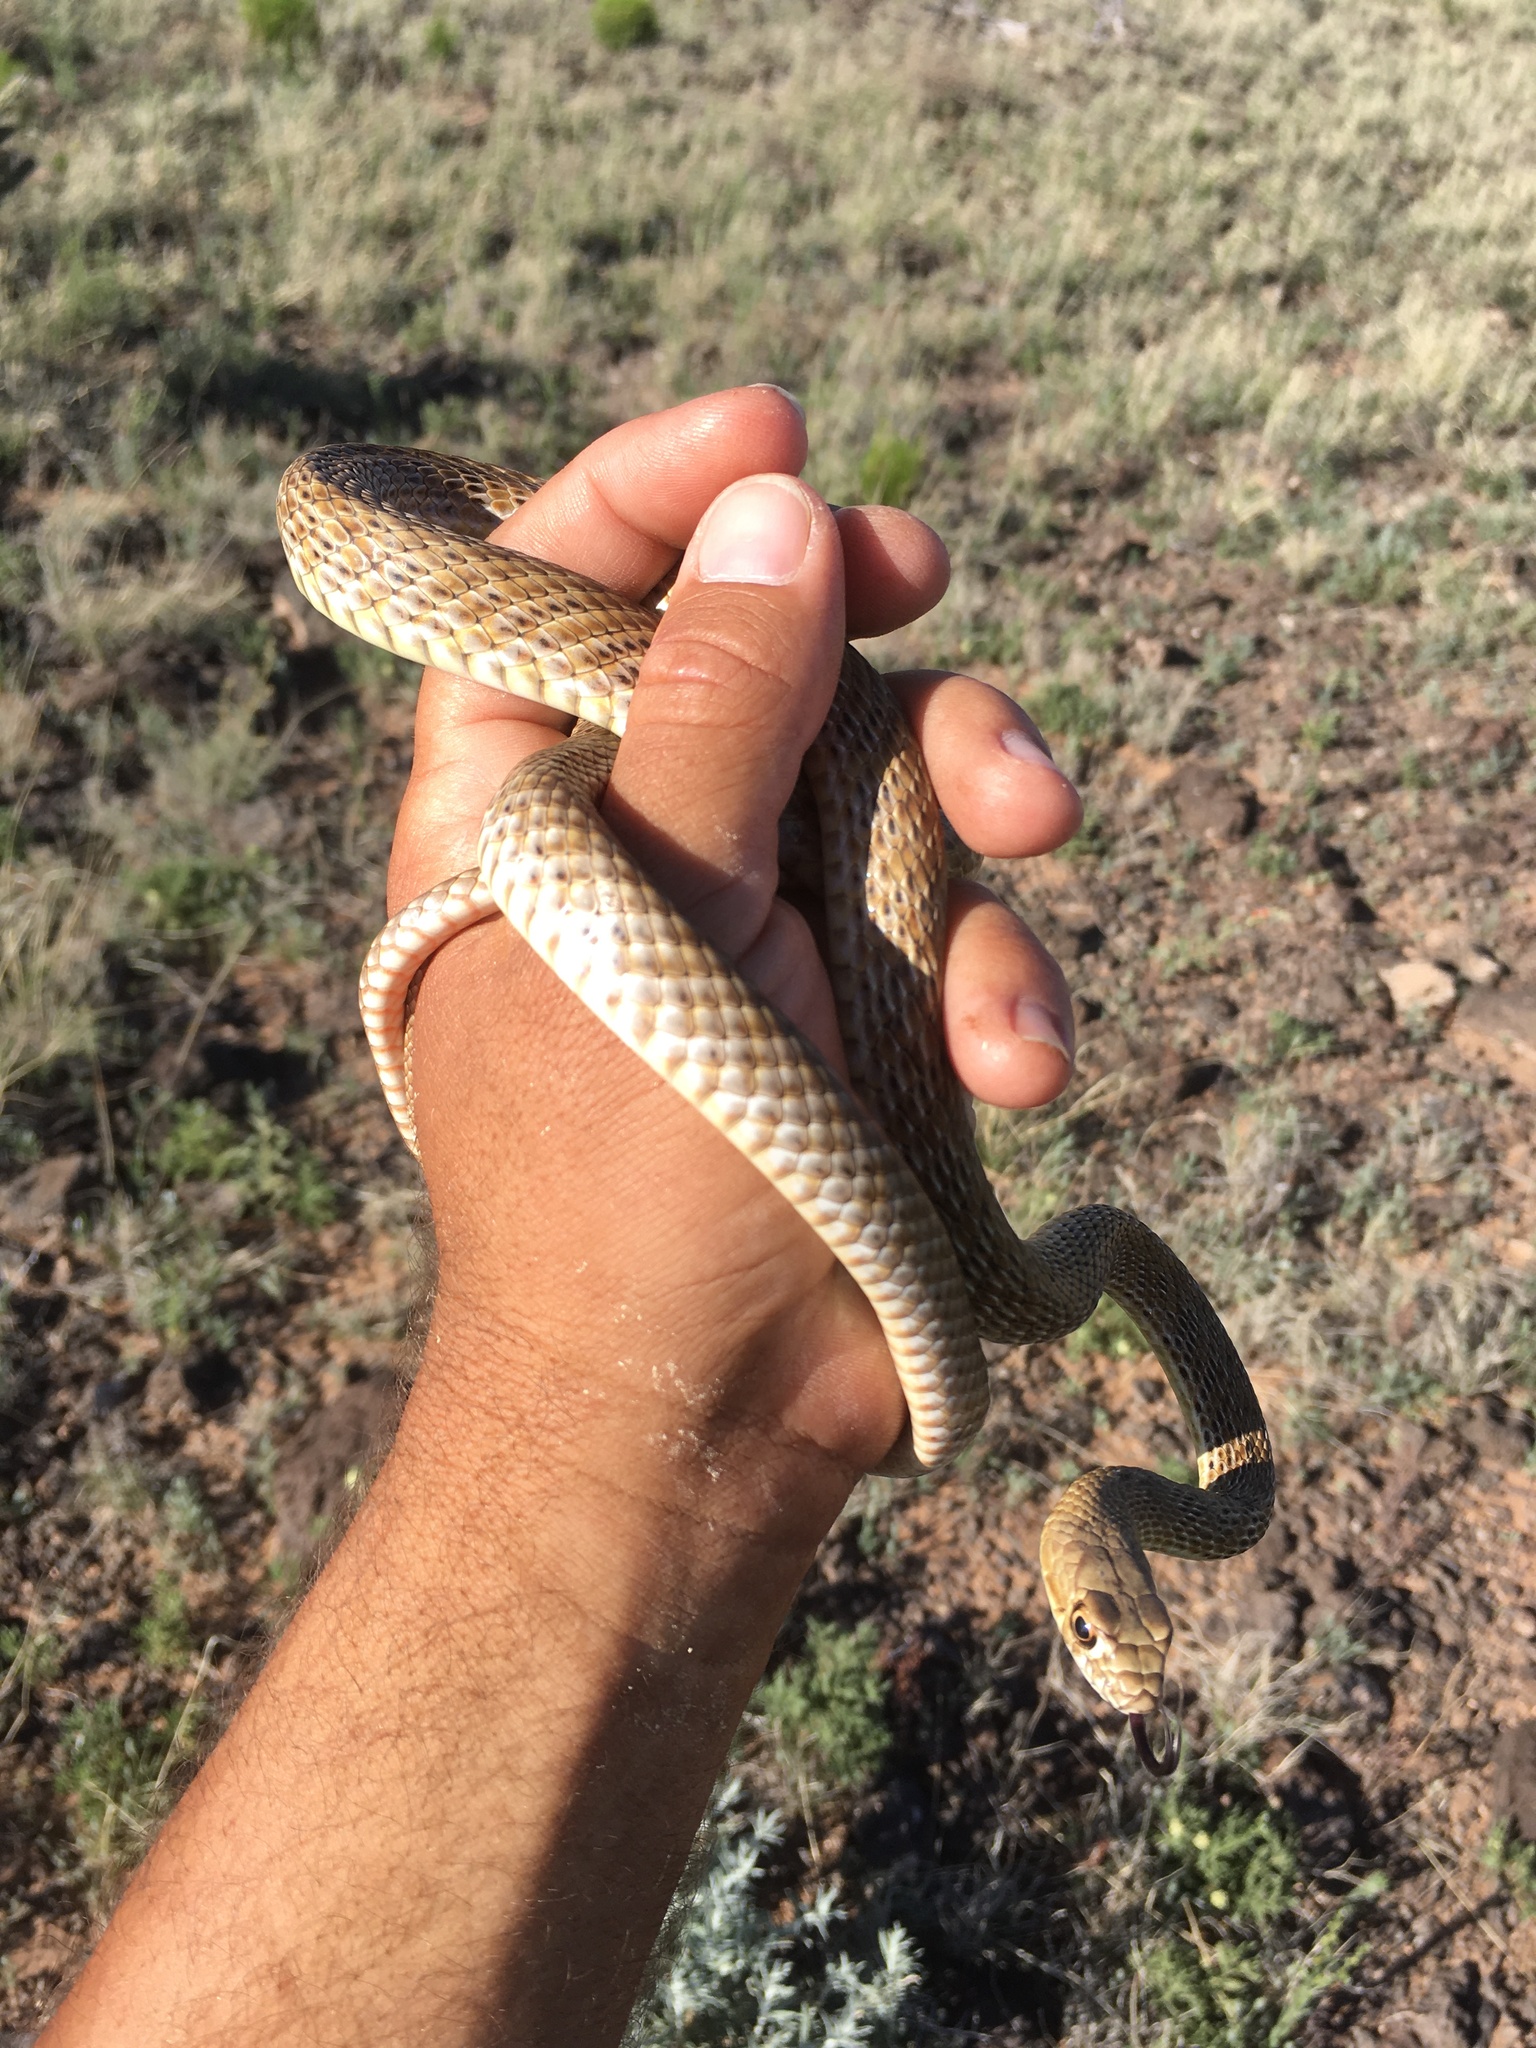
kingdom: Animalia
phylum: Chordata
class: Squamata
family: Colubridae
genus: Masticophis
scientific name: Masticophis flagellum
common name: Coachwhip
